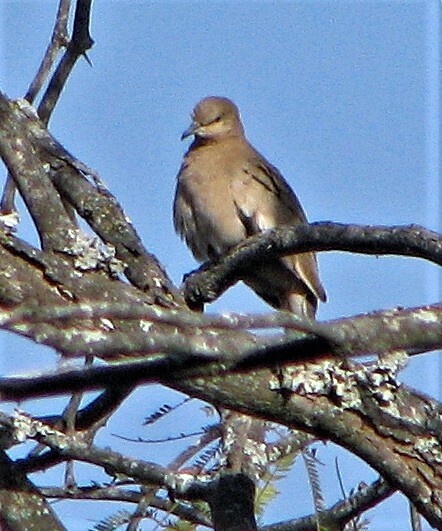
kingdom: Animalia
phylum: Chordata
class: Aves
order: Columbiformes
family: Columbidae
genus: Columbina
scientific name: Columbina picui
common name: Picui ground dove
